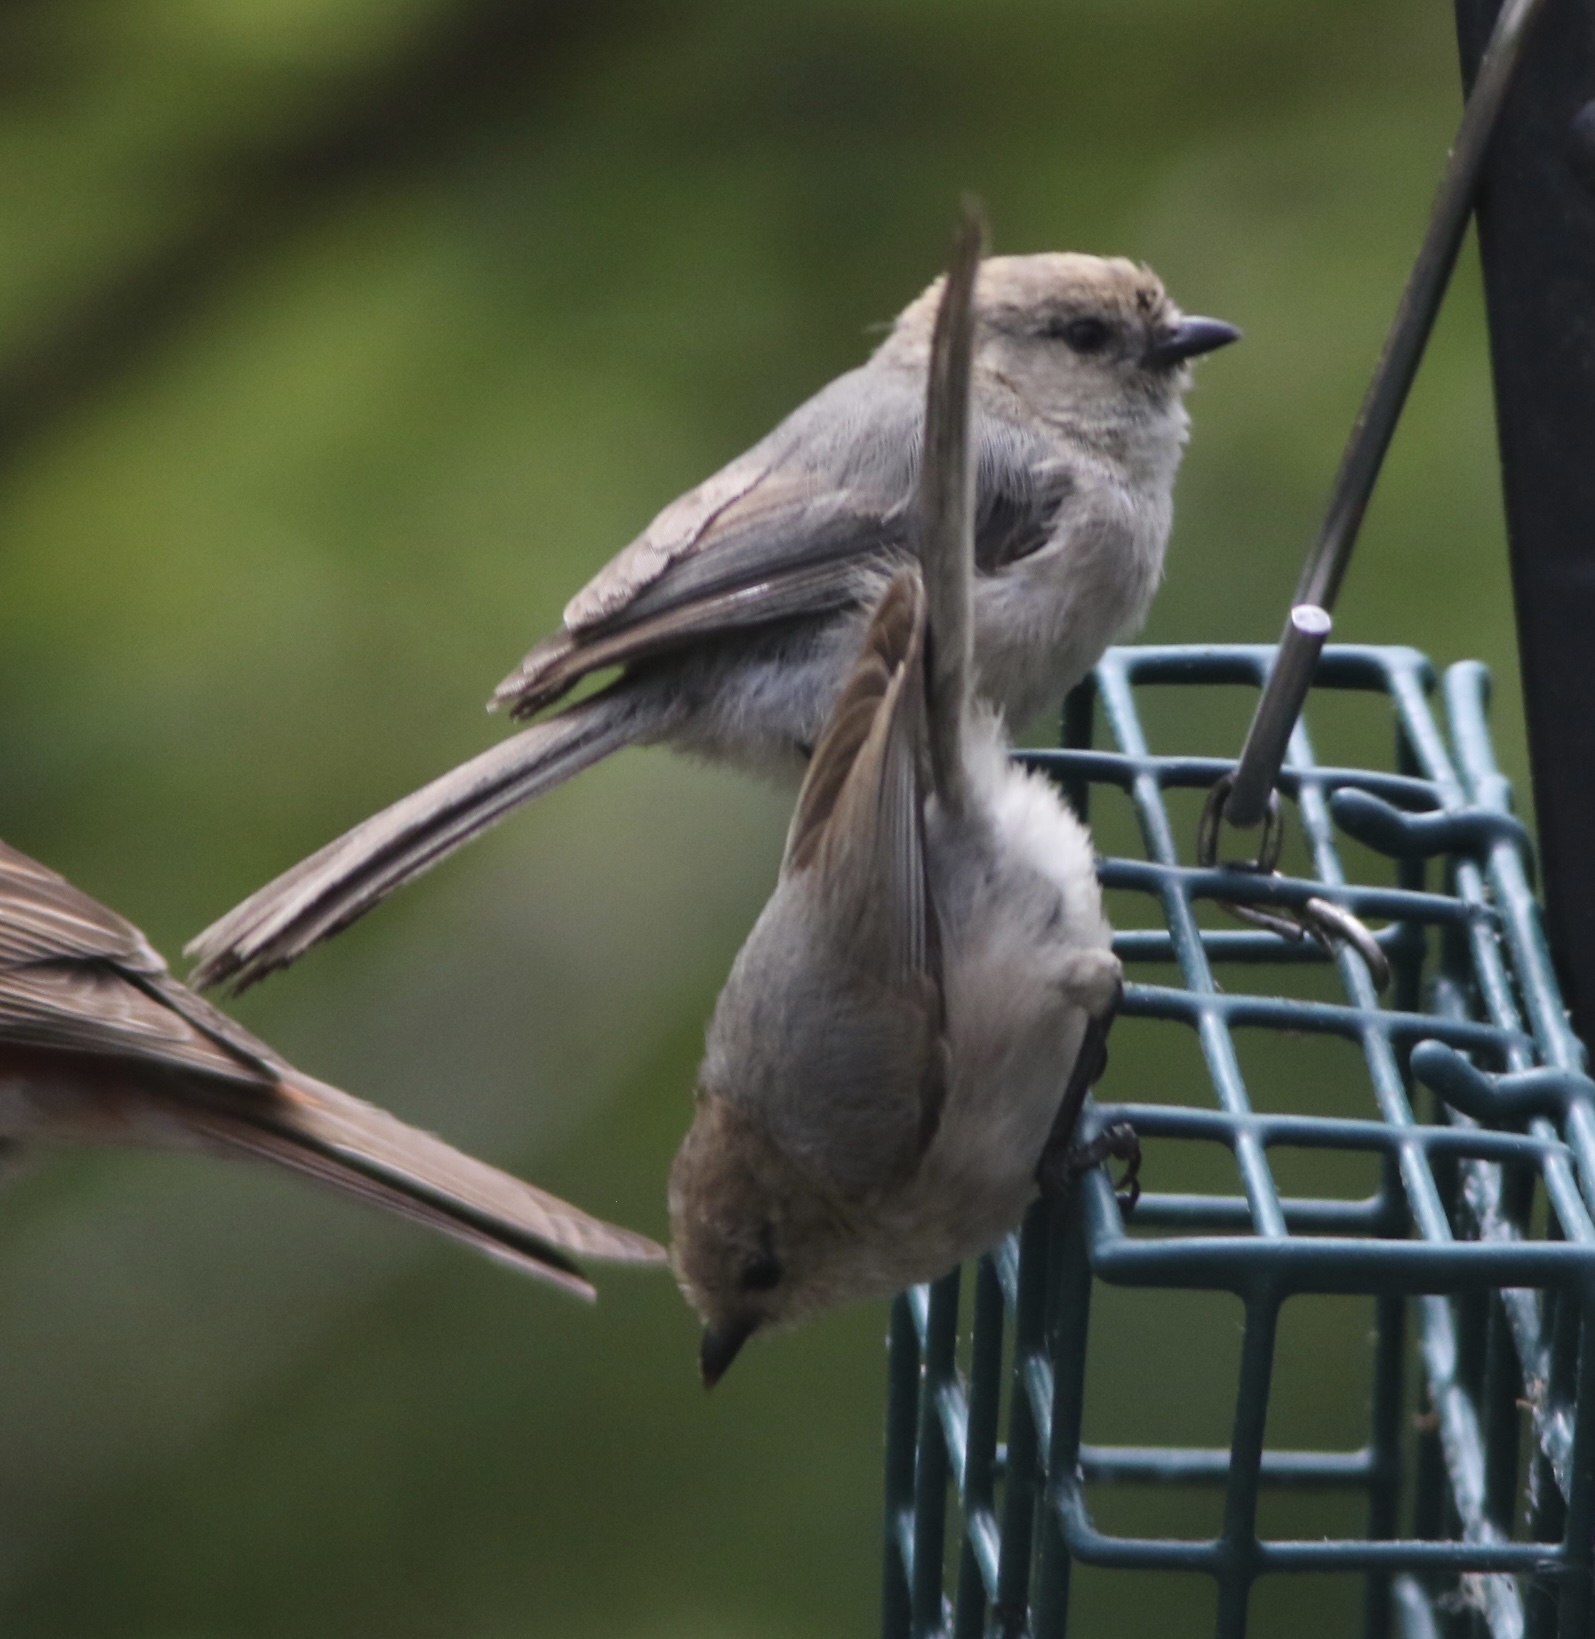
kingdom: Animalia
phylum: Chordata
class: Aves
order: Passeriformes
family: Aegithalidae
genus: Psaltriparus
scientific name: Psaltriparus minimus
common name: American bushtit
